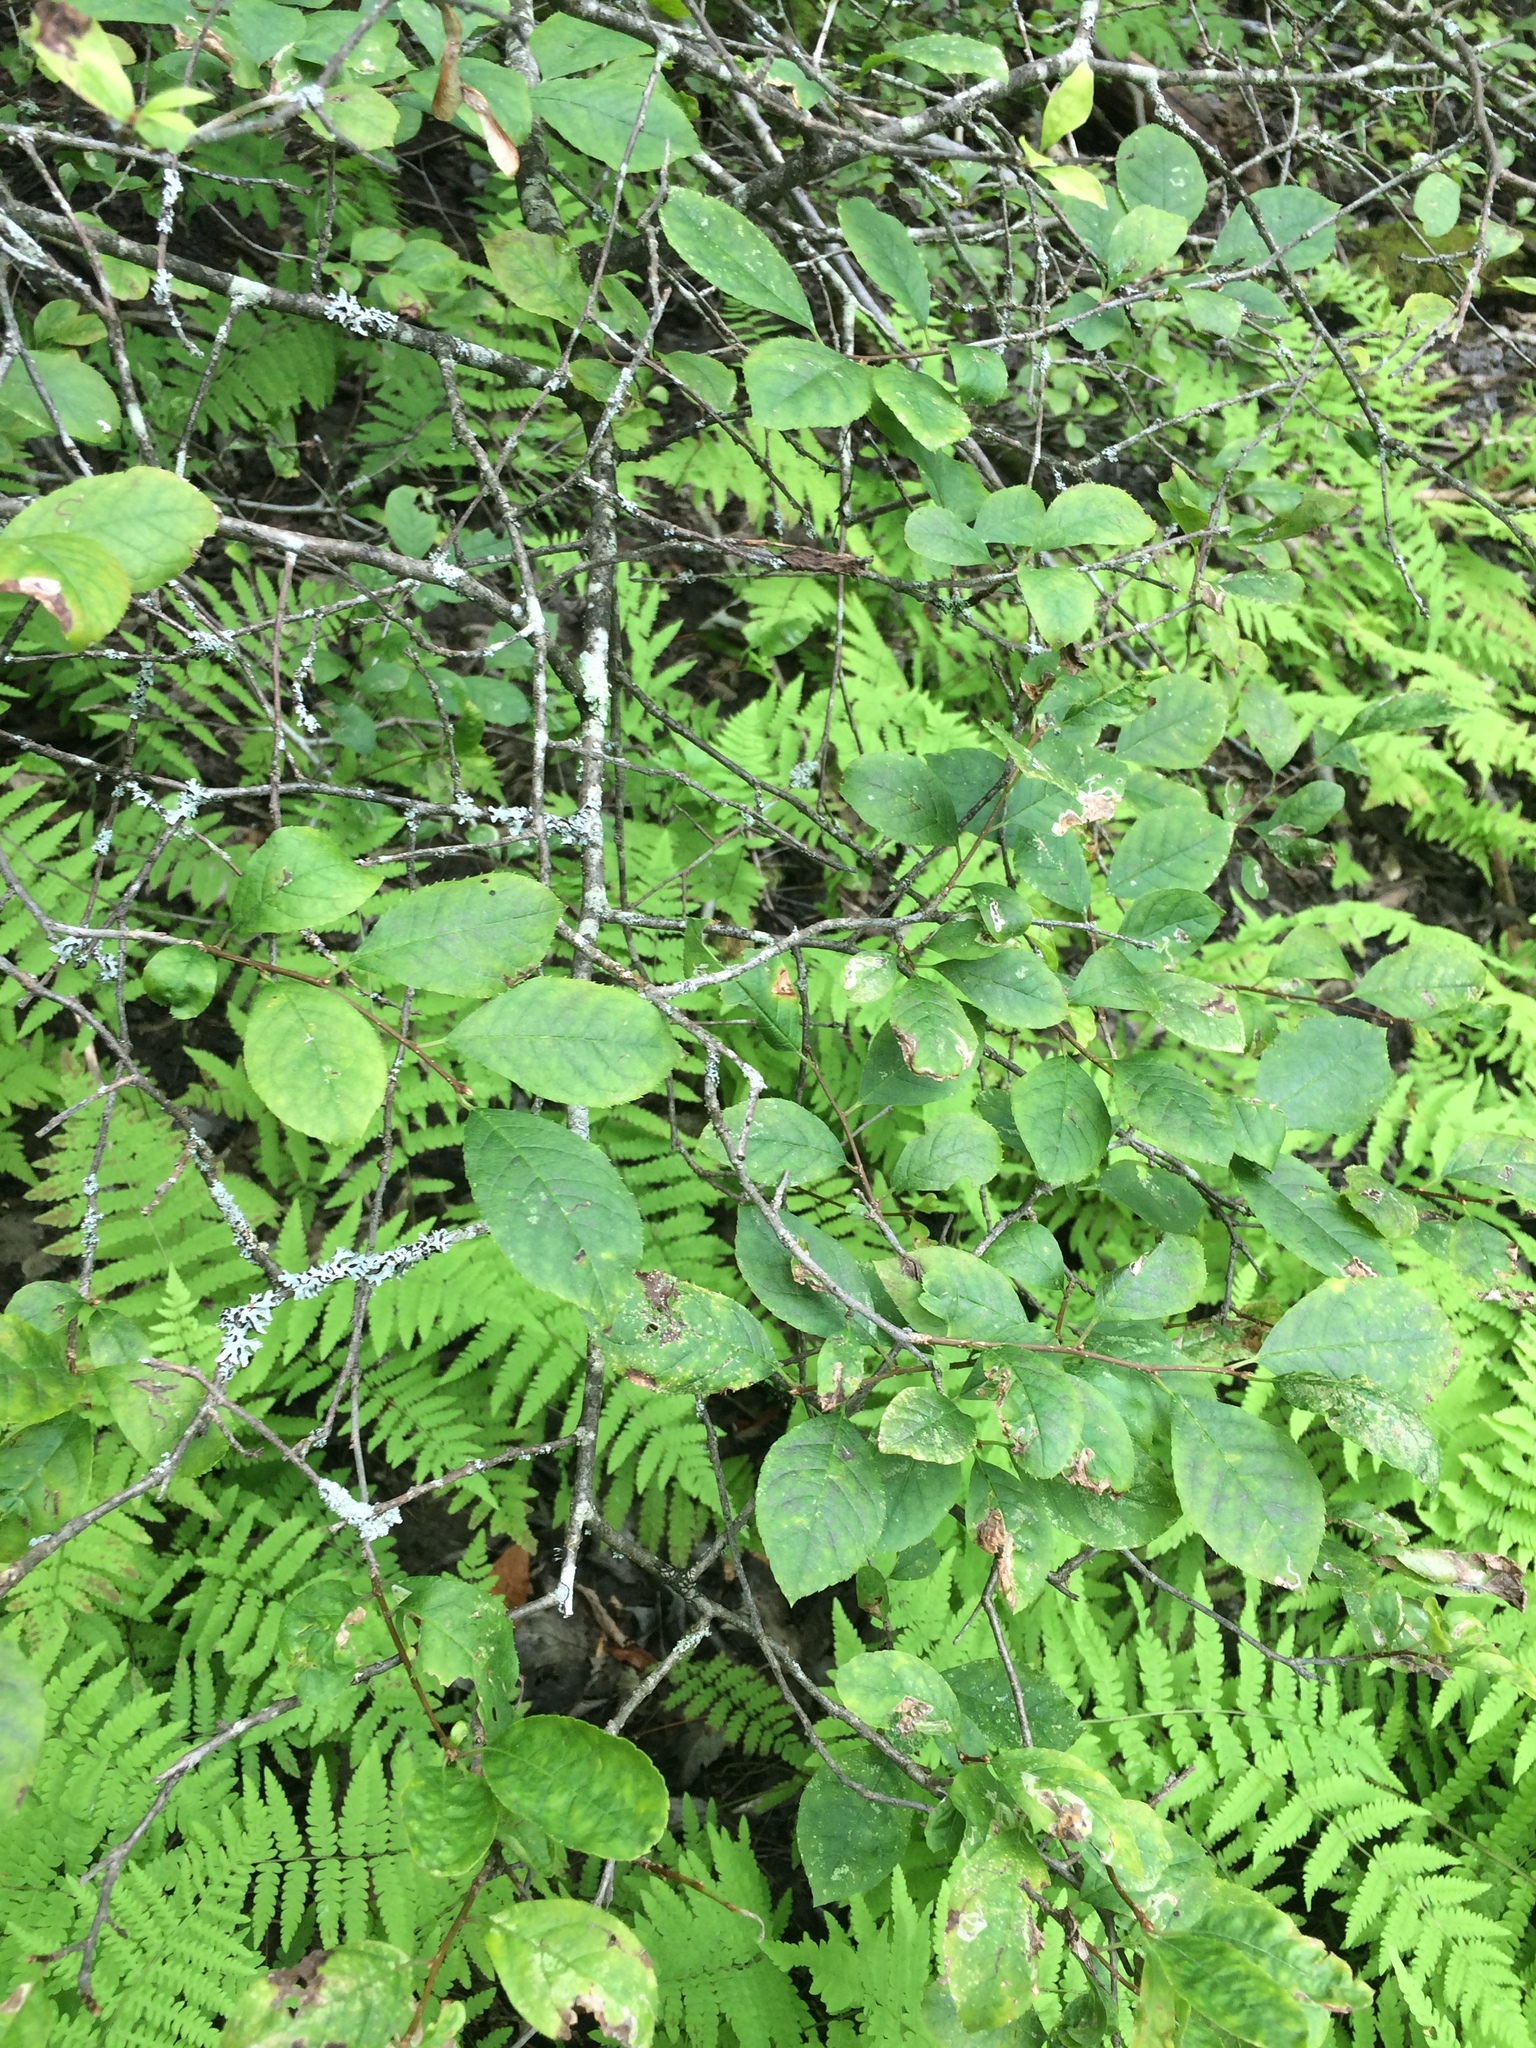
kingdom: Plantae
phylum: Tracheophyta
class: Magnoliopsida
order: Aquifoliales
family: Aquifoliaceae
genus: Ilex
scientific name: Ilex verticillata
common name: Virginia winterberry
